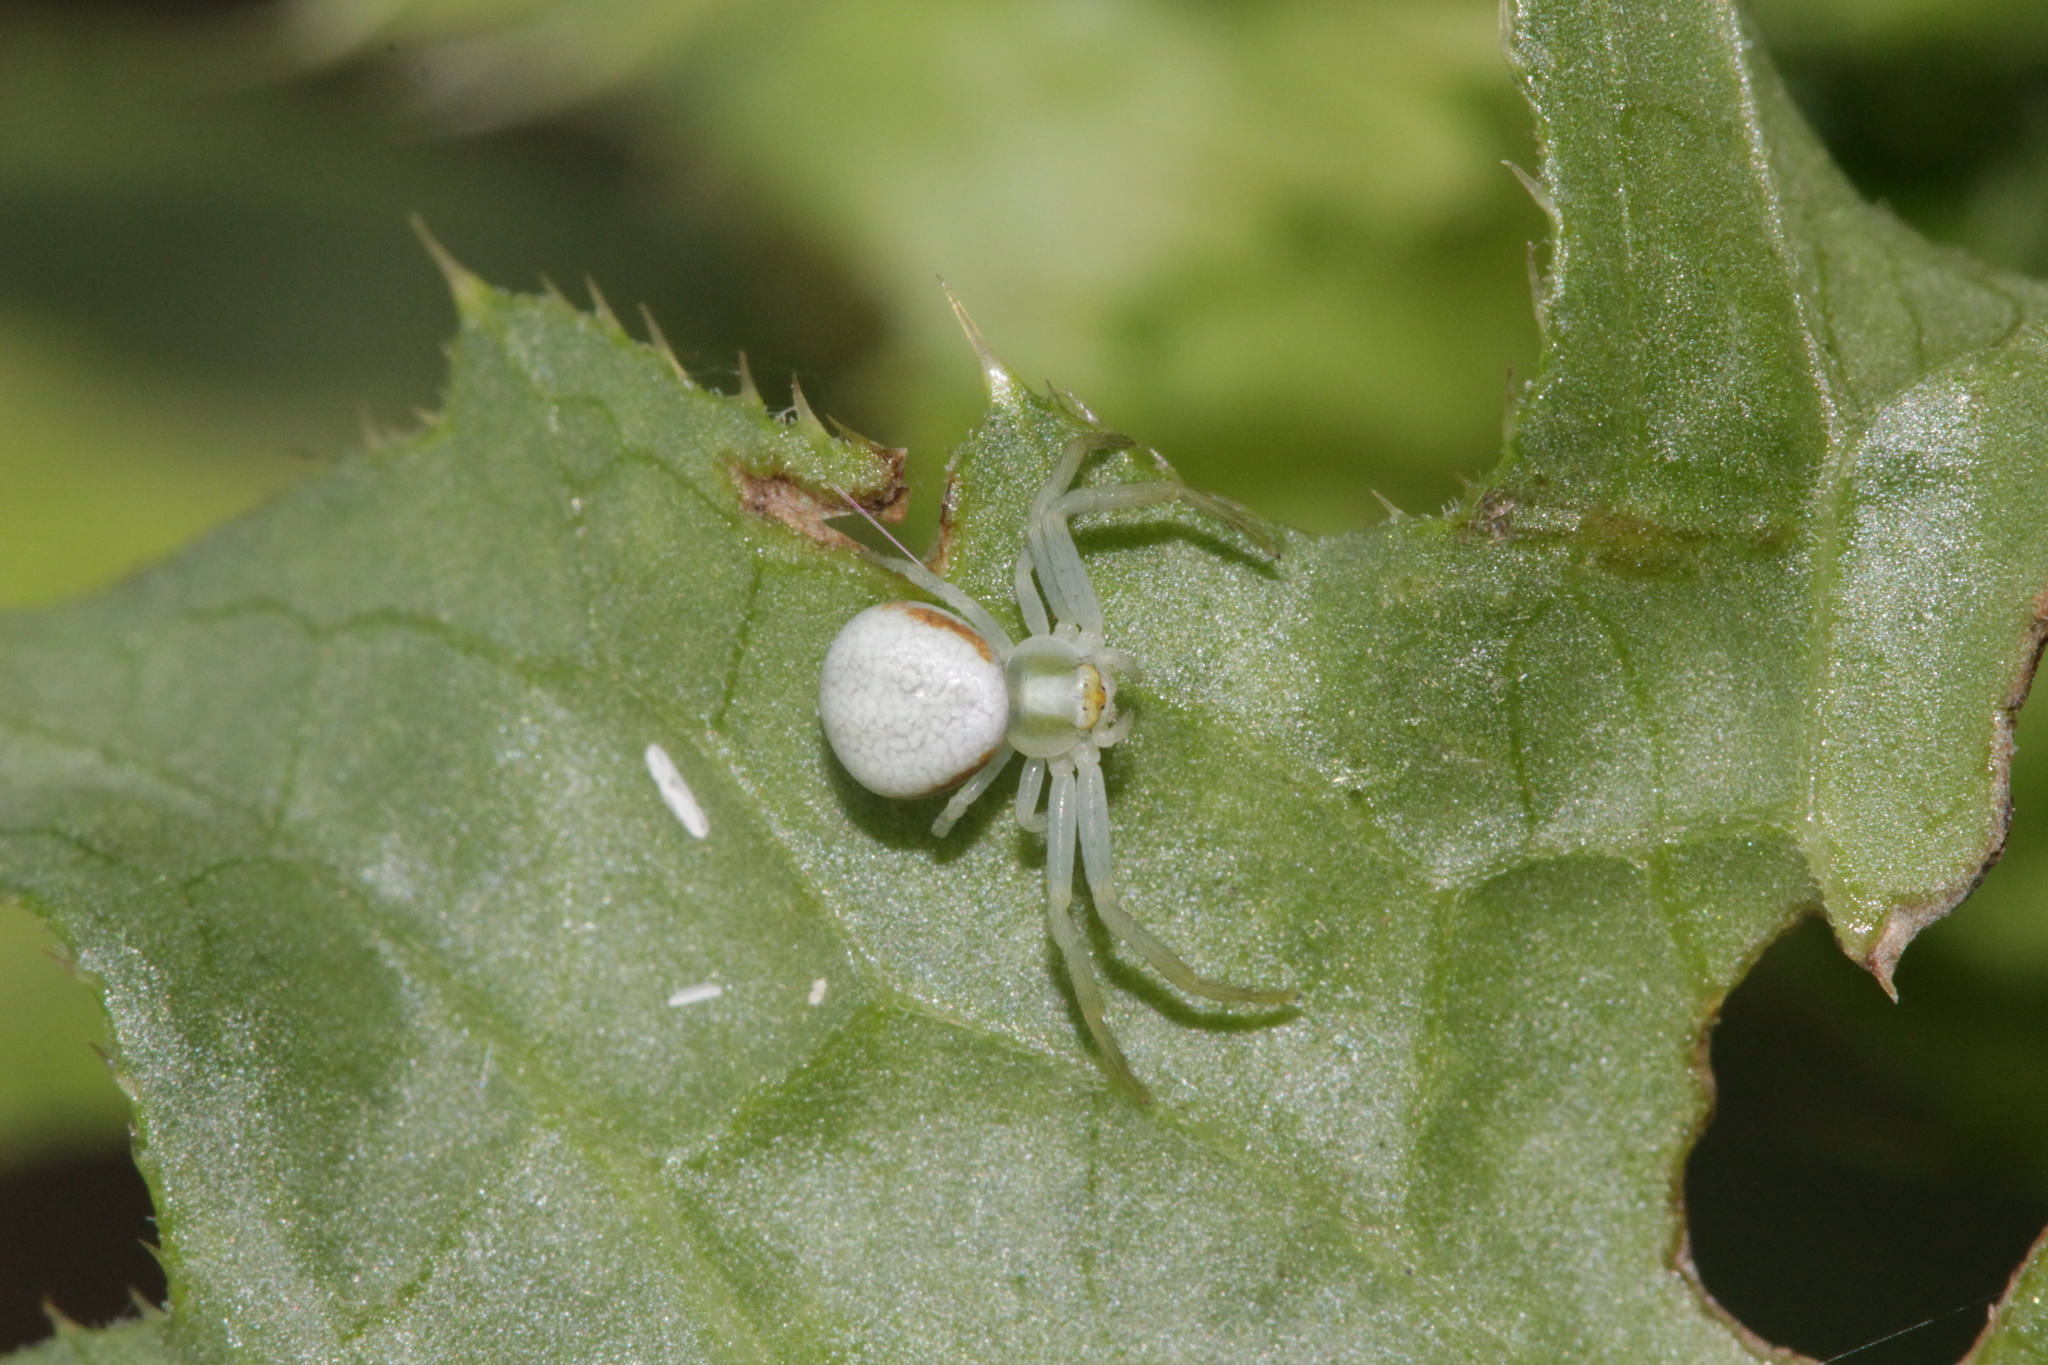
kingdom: Animalia
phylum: Arthropoda
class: Arachnida
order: Araneae
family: Thomisidae
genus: Misumena
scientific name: Misumena vatia
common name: Goldenrod crab spider
